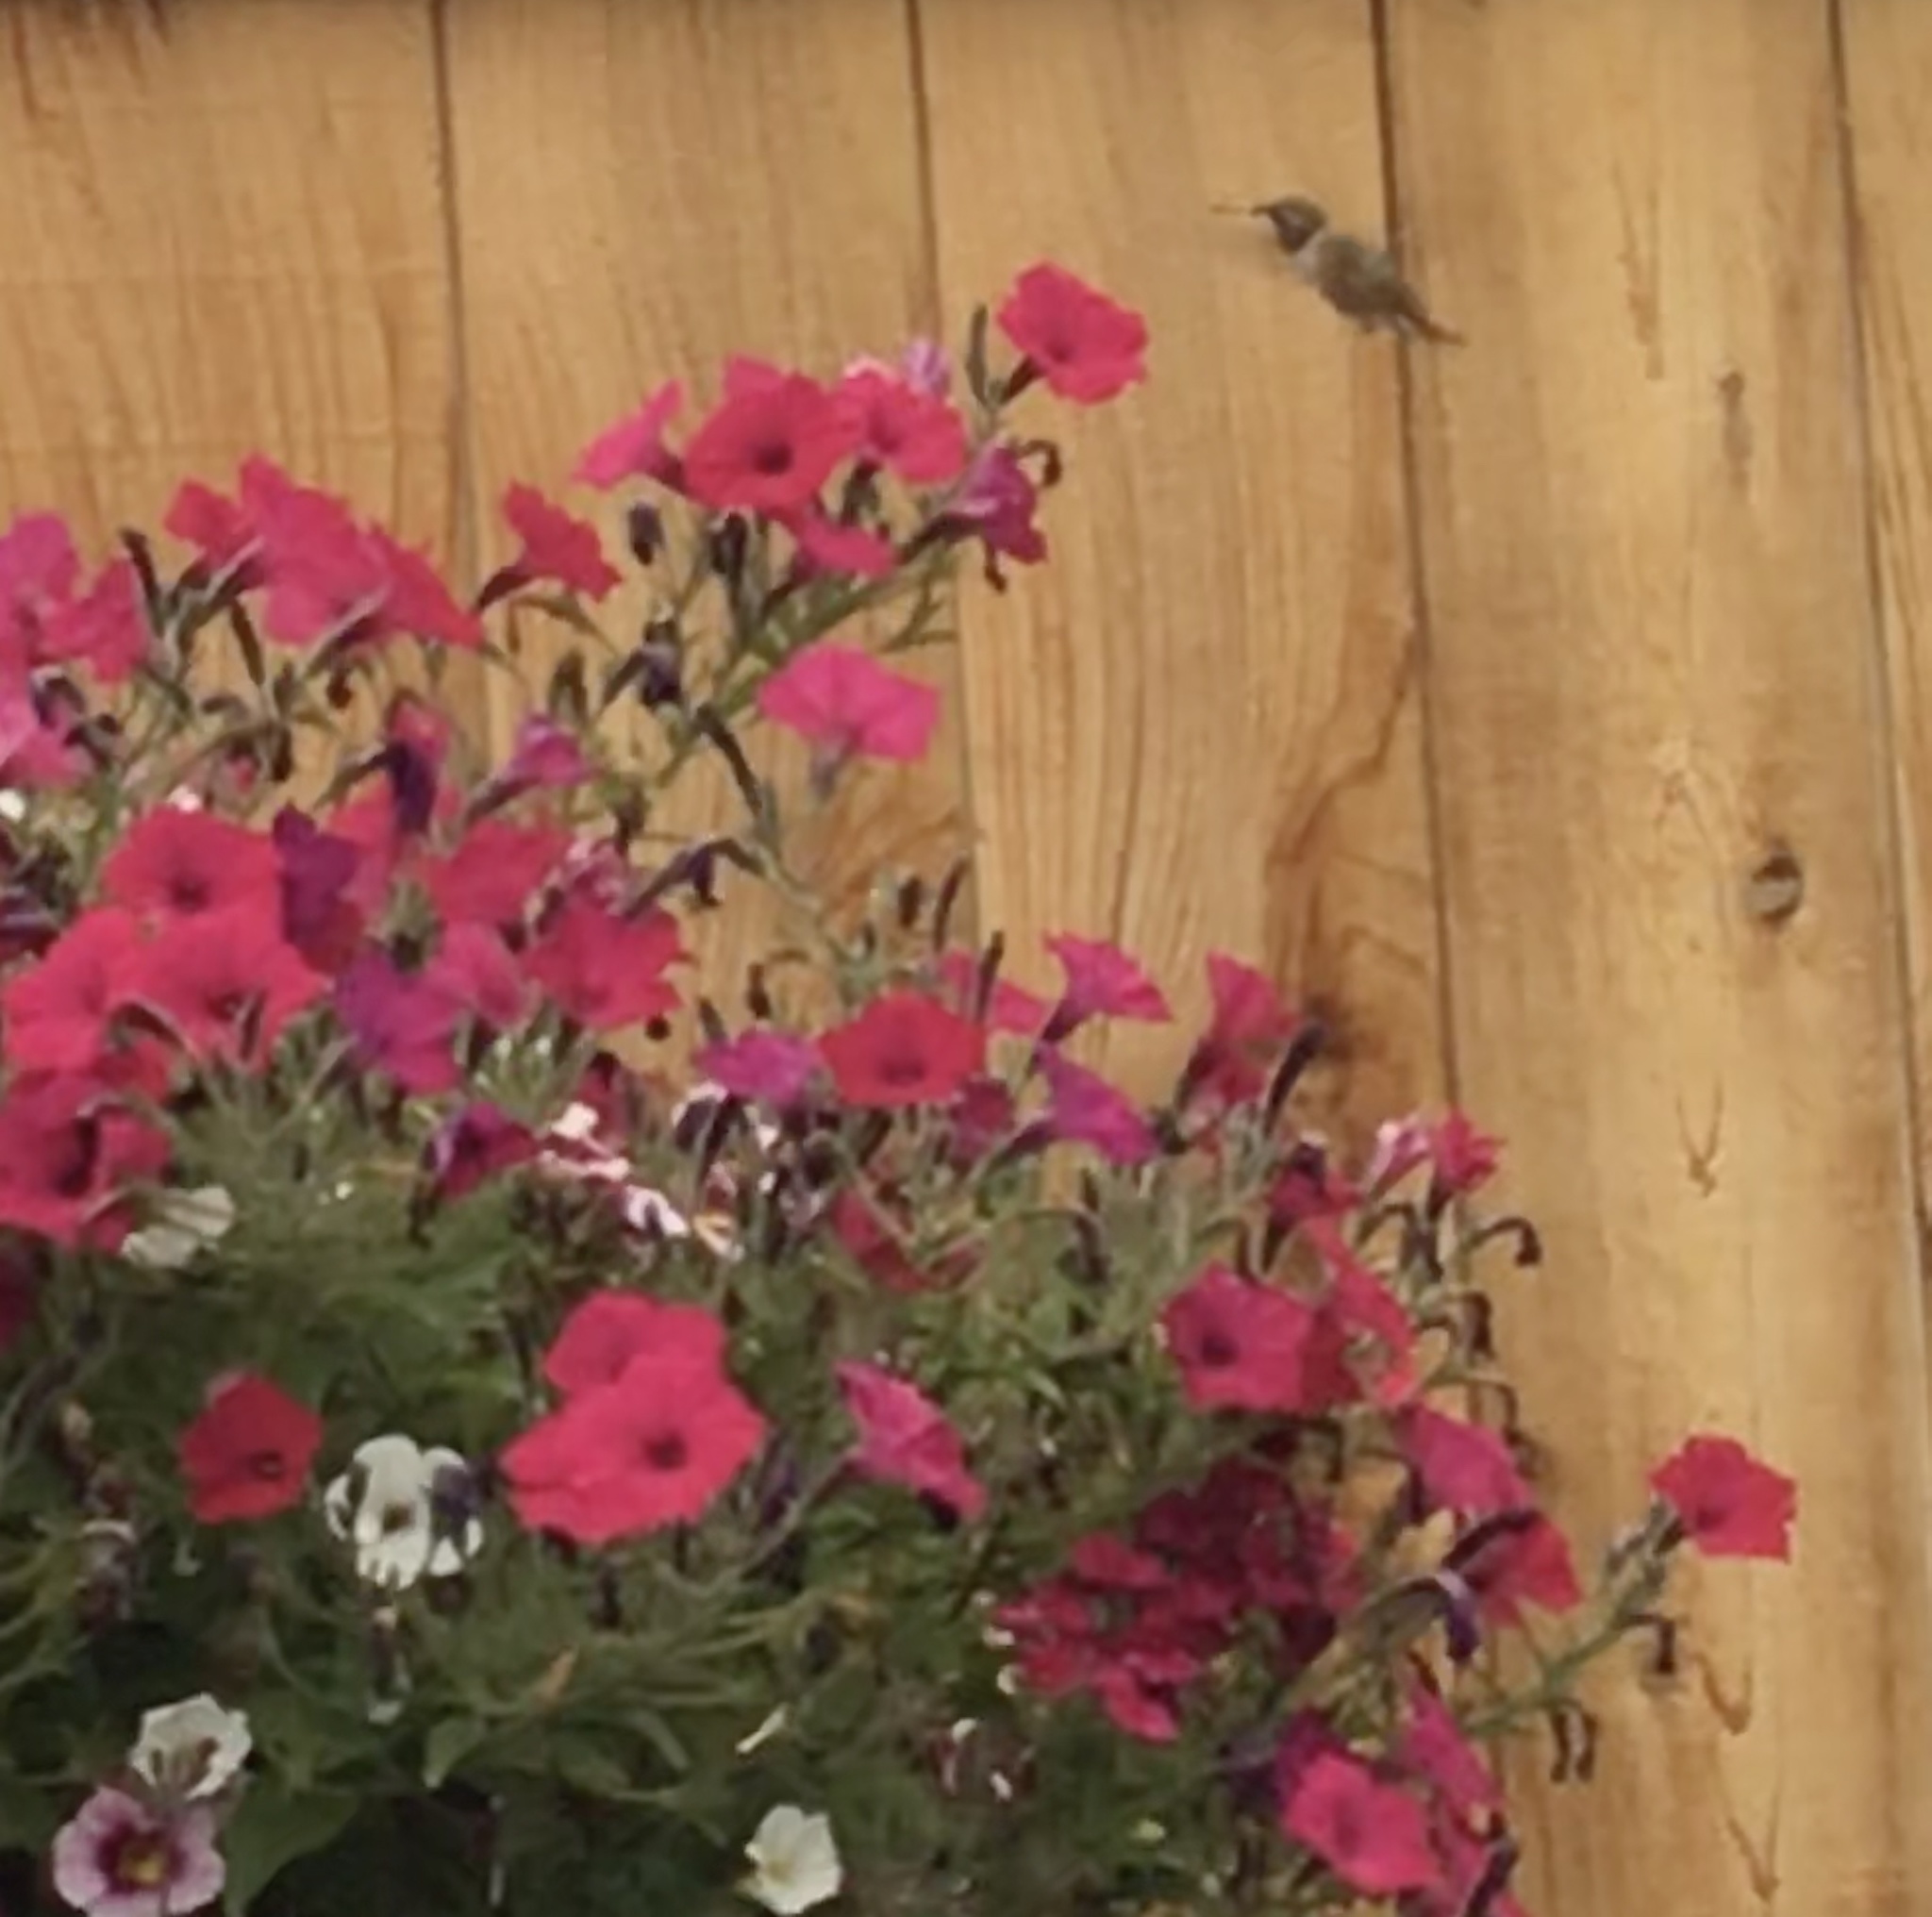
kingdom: Animalia
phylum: Chordata
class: Aves
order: Apodiformes
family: Trochilidae
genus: Selasphorus
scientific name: Selasphorus rufus
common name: Rufous hummingbird
